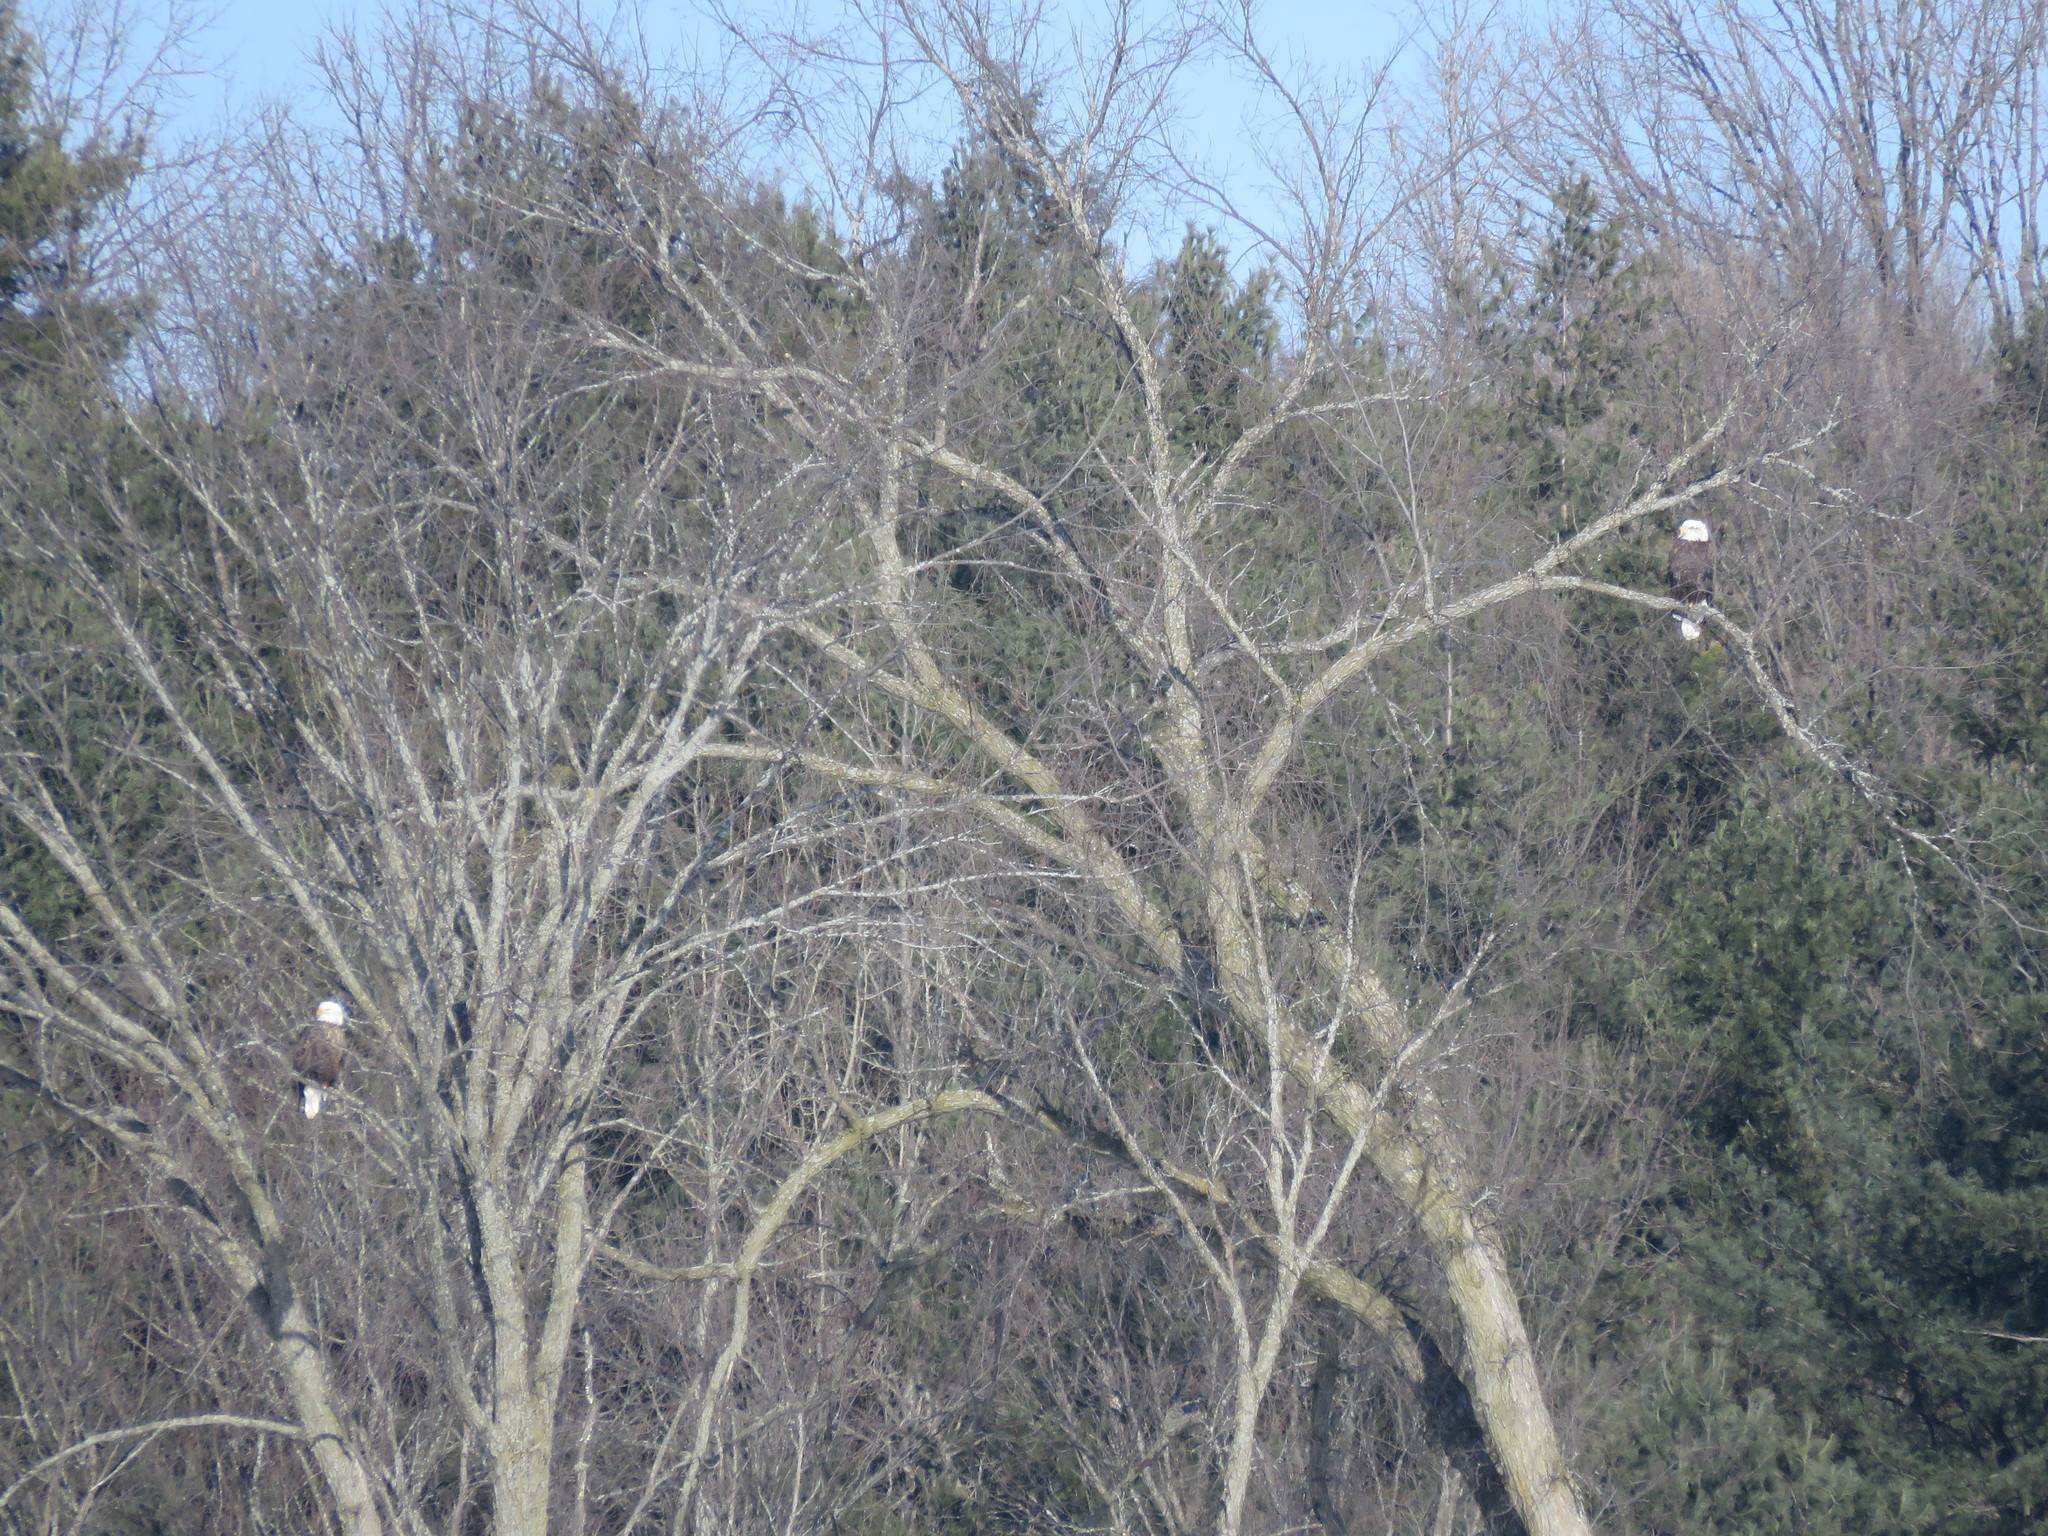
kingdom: Animalia
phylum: Chordata
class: Aves
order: Accipitriformes
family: Accipitridae
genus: Haliaeetus
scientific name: Haliaeetus leucocephalus
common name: Bald eagle
